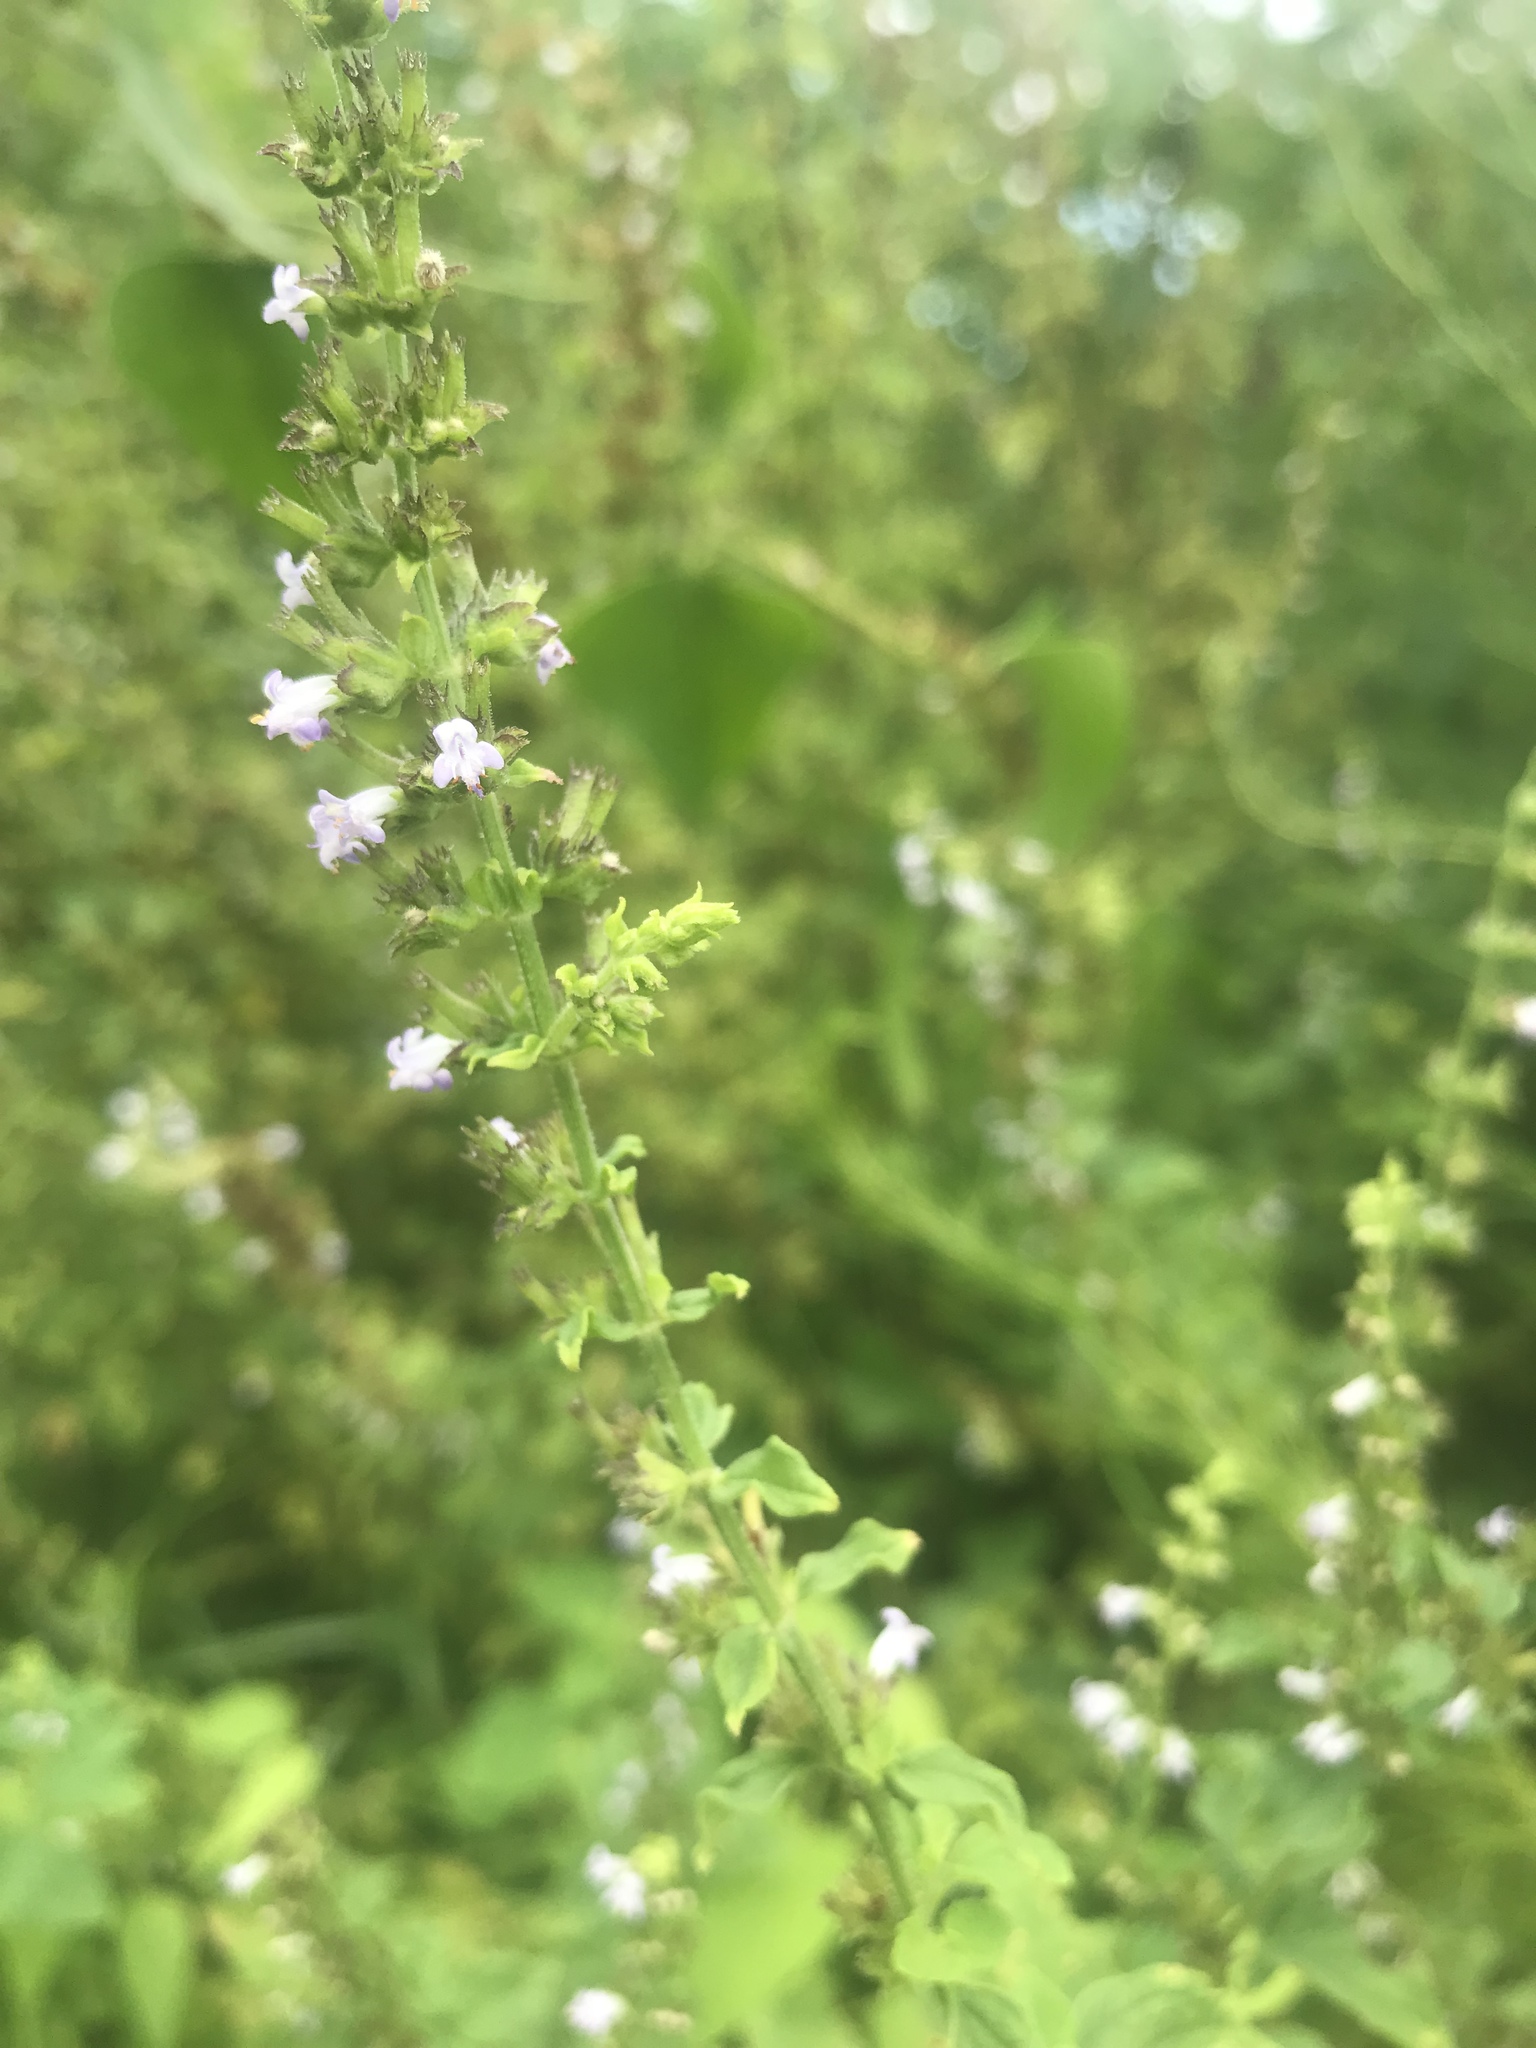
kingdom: Plantae
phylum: Tracheophyta
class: Magnoliopsida
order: Lamiales
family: Lamiaceae
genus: Cantinoa
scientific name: Cantinoa mutabilis
